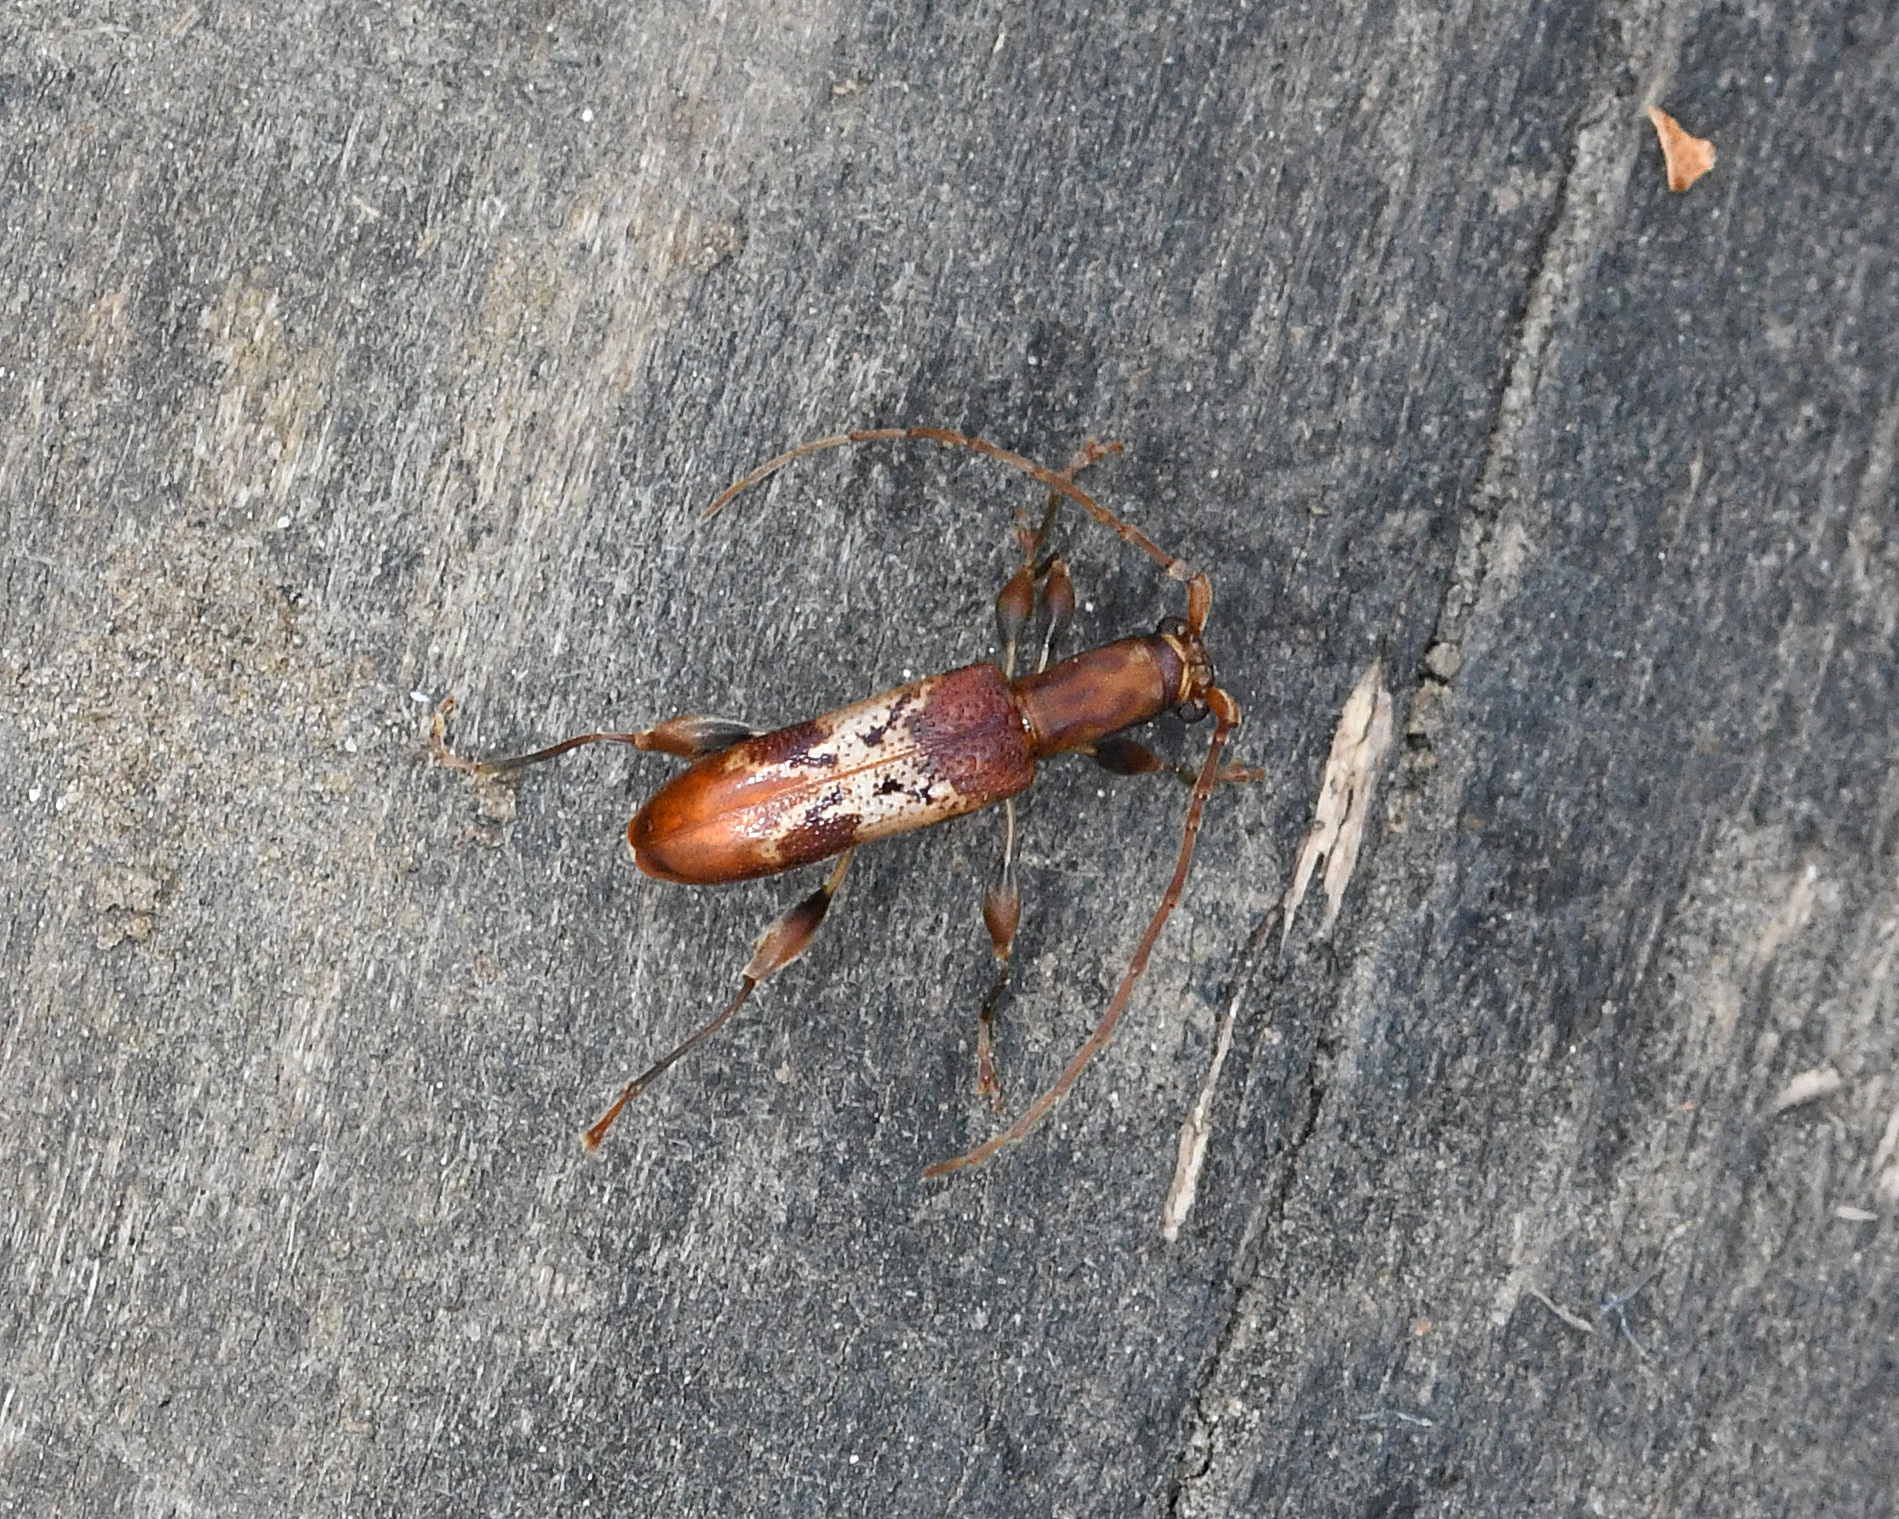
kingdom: Animalia
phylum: Arthropoda
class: Insecta
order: Coleoptera
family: Cerambycidae
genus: Plectromerus
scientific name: Plectromerus lingafelteri
